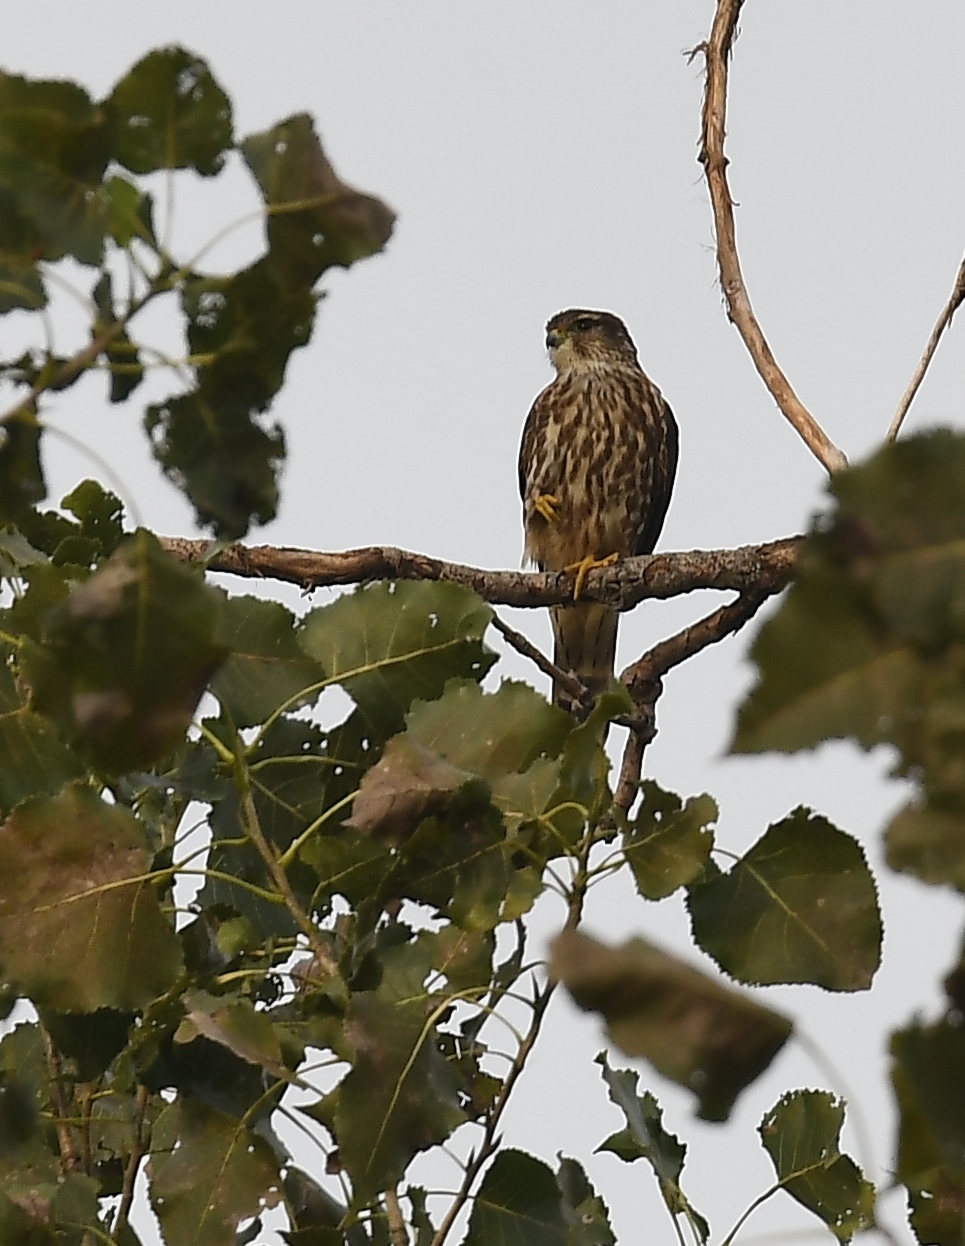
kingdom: Animalia
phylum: Chordata
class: Aves
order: Falconiformes
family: Falconidae
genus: Falco
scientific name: Falco columbarius
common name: Merlin
